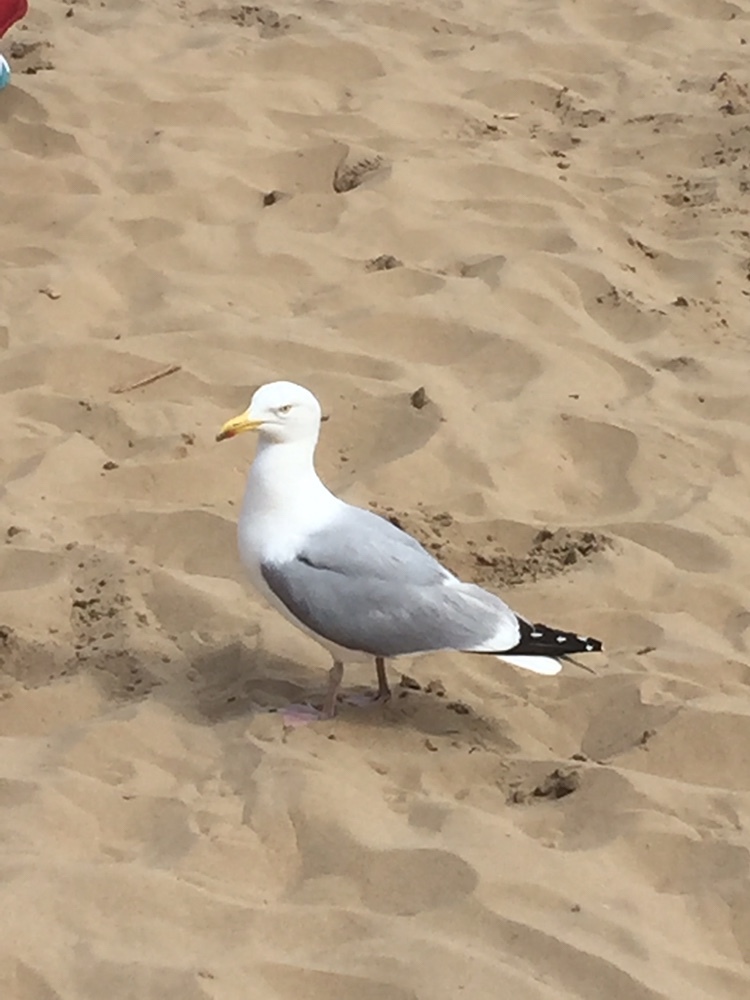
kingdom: Animalia
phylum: Chordata
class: Aves
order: Charadriiformes
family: Laridae
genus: Larus
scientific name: Larus argentatus
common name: Herring gull
